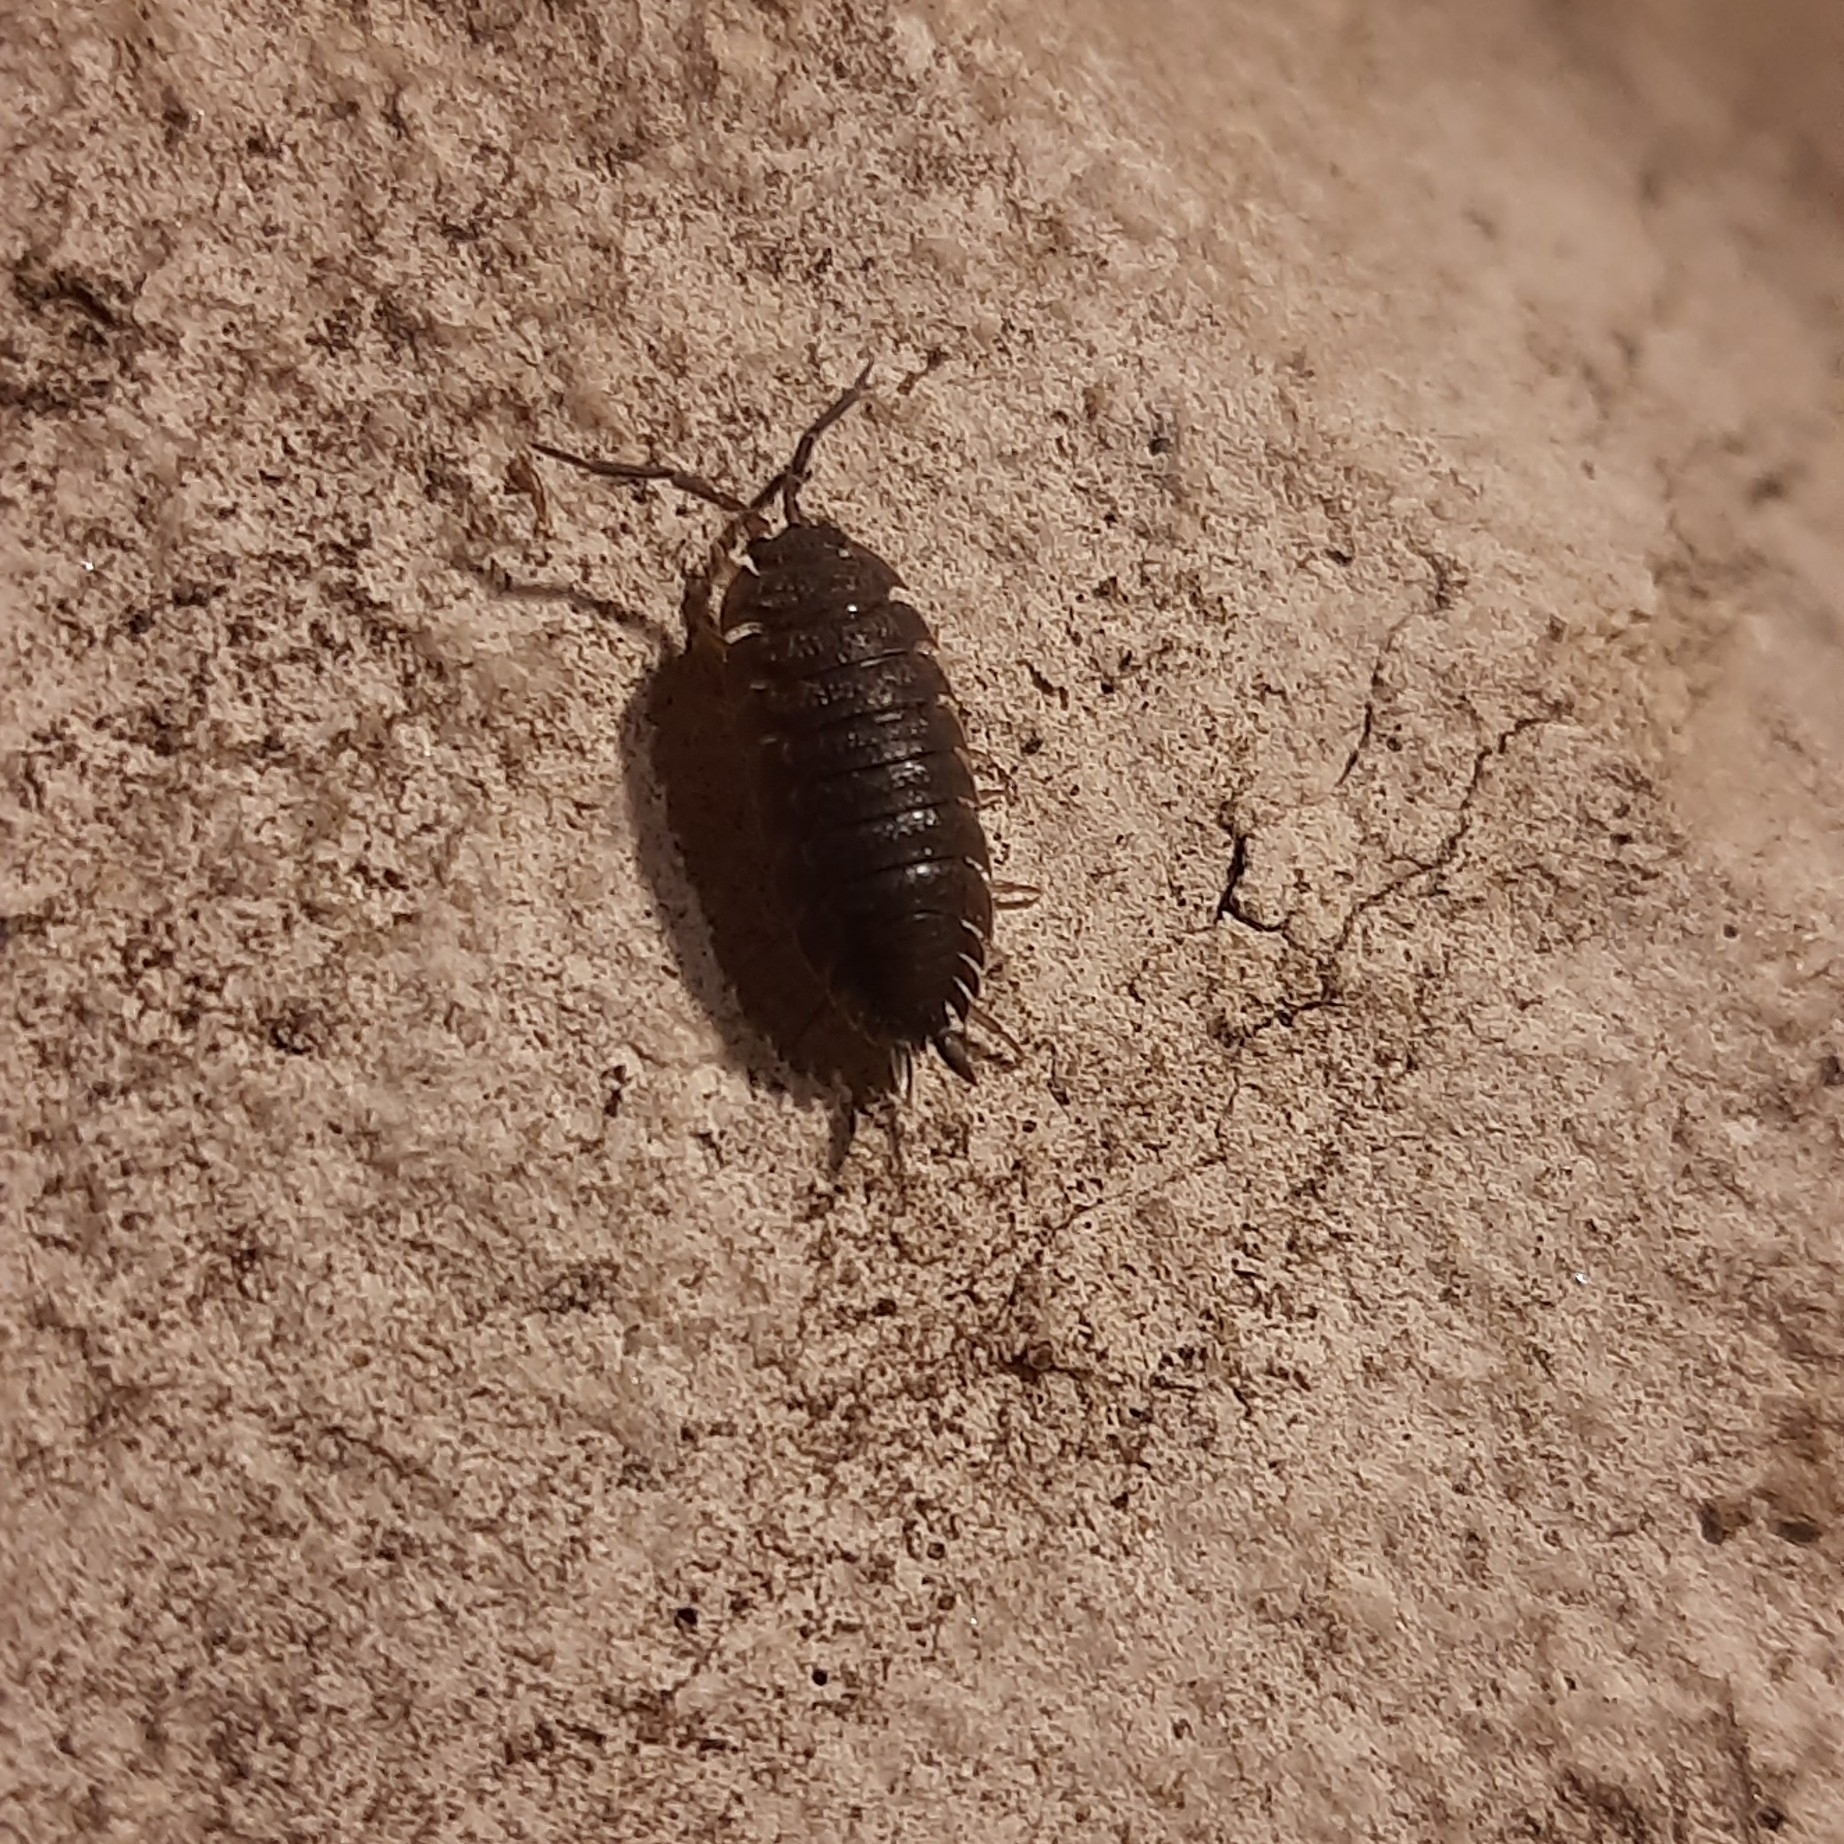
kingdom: Animalia
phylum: Arthropoda
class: Malacostraca
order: Isopoda
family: Porcellionidae
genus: Porcellio
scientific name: Porcellio scaber
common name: Common rough woodlouse
